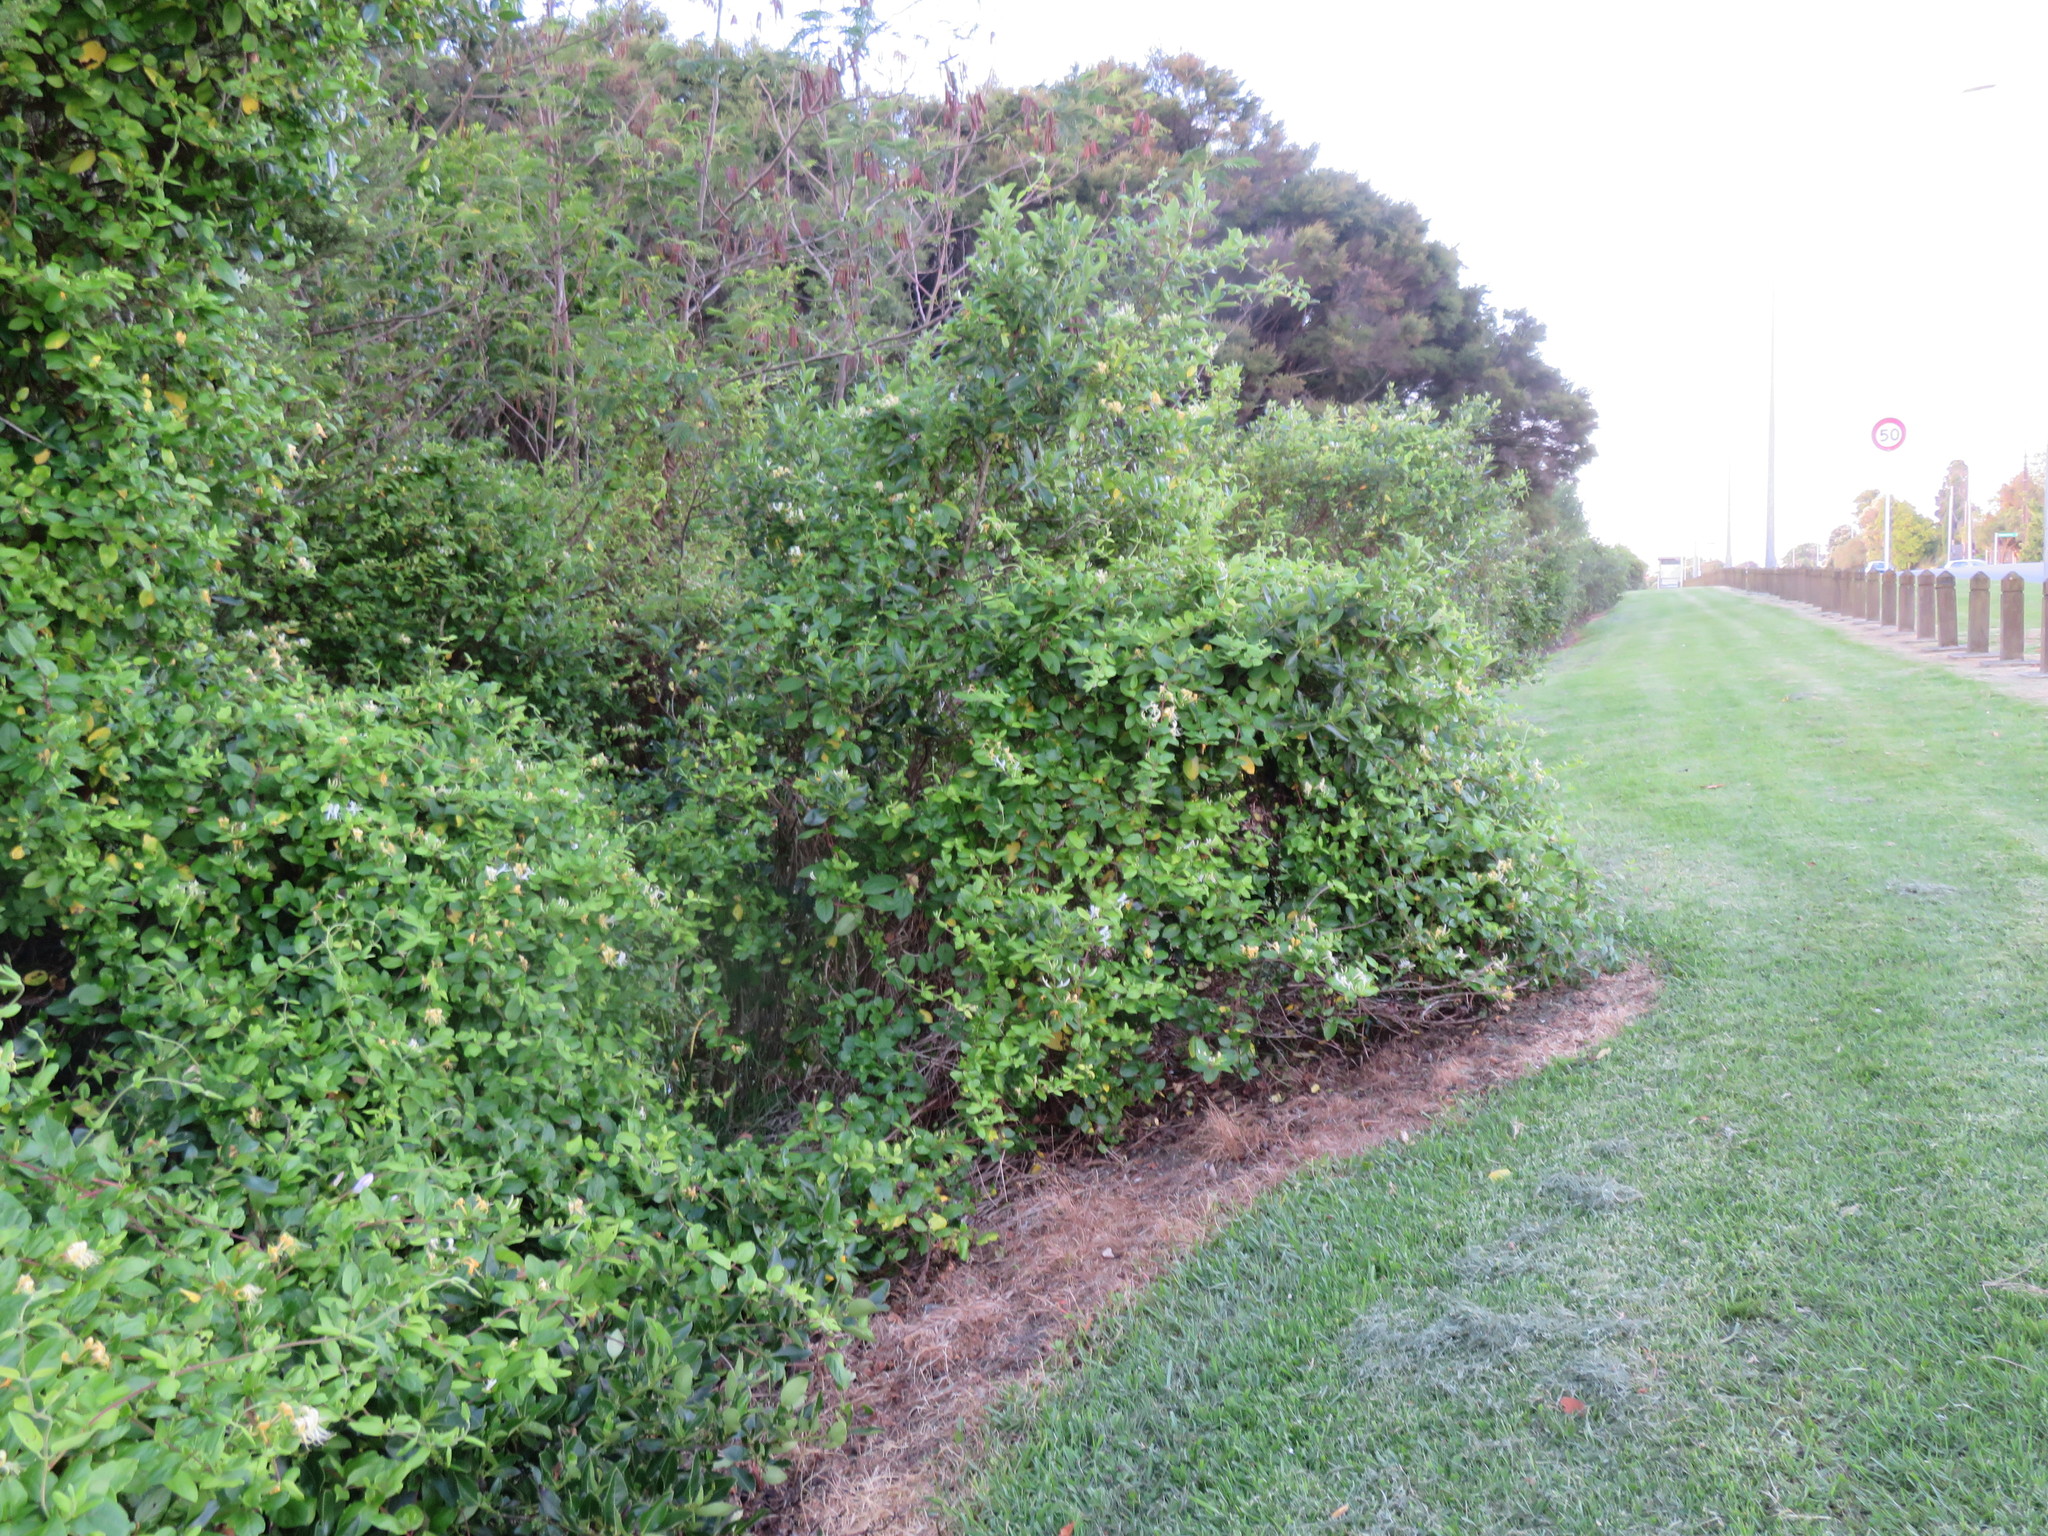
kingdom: Plantae
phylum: Tracheophyta
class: Magnoliopsida
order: Dipsacales
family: Caprifoliaceae
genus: Lonicera
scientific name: Lonicera japonica
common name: Japanese honeysuckle
